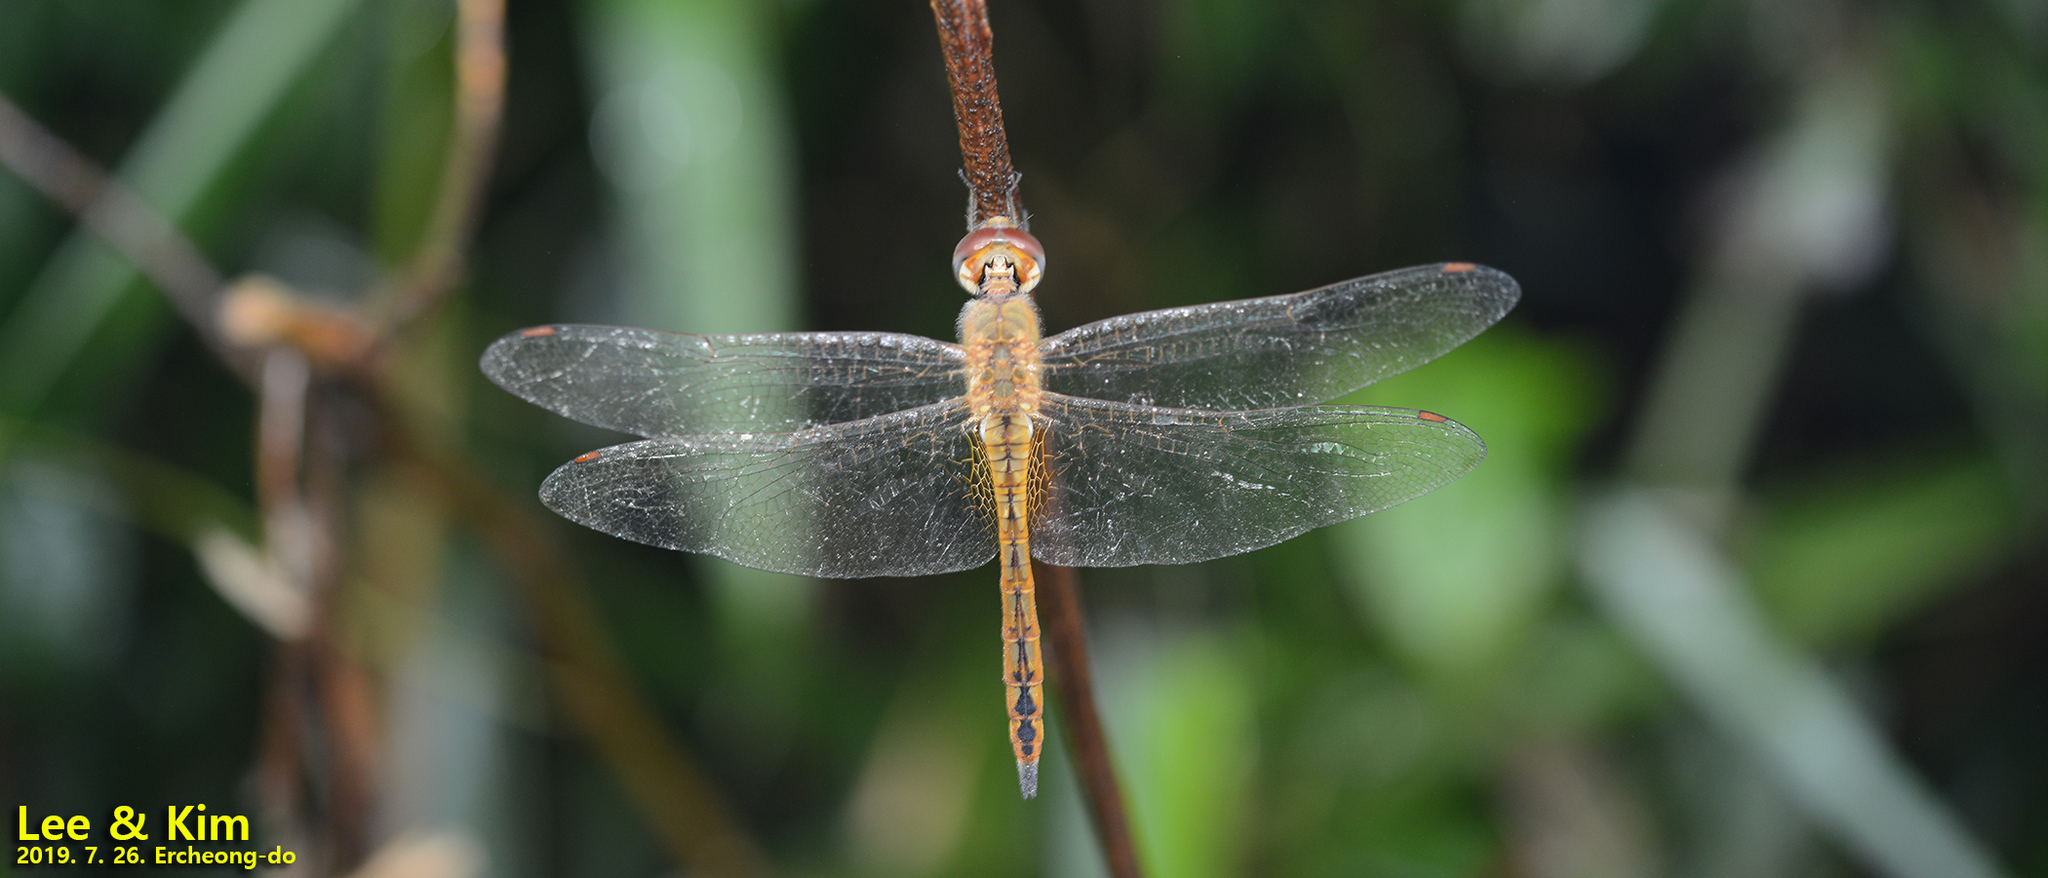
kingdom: Animalia
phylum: Arthropoda
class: Insecta
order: Odonata
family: Libellulidae
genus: Pantala
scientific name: Pantala flavescens
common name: Wandering glider
